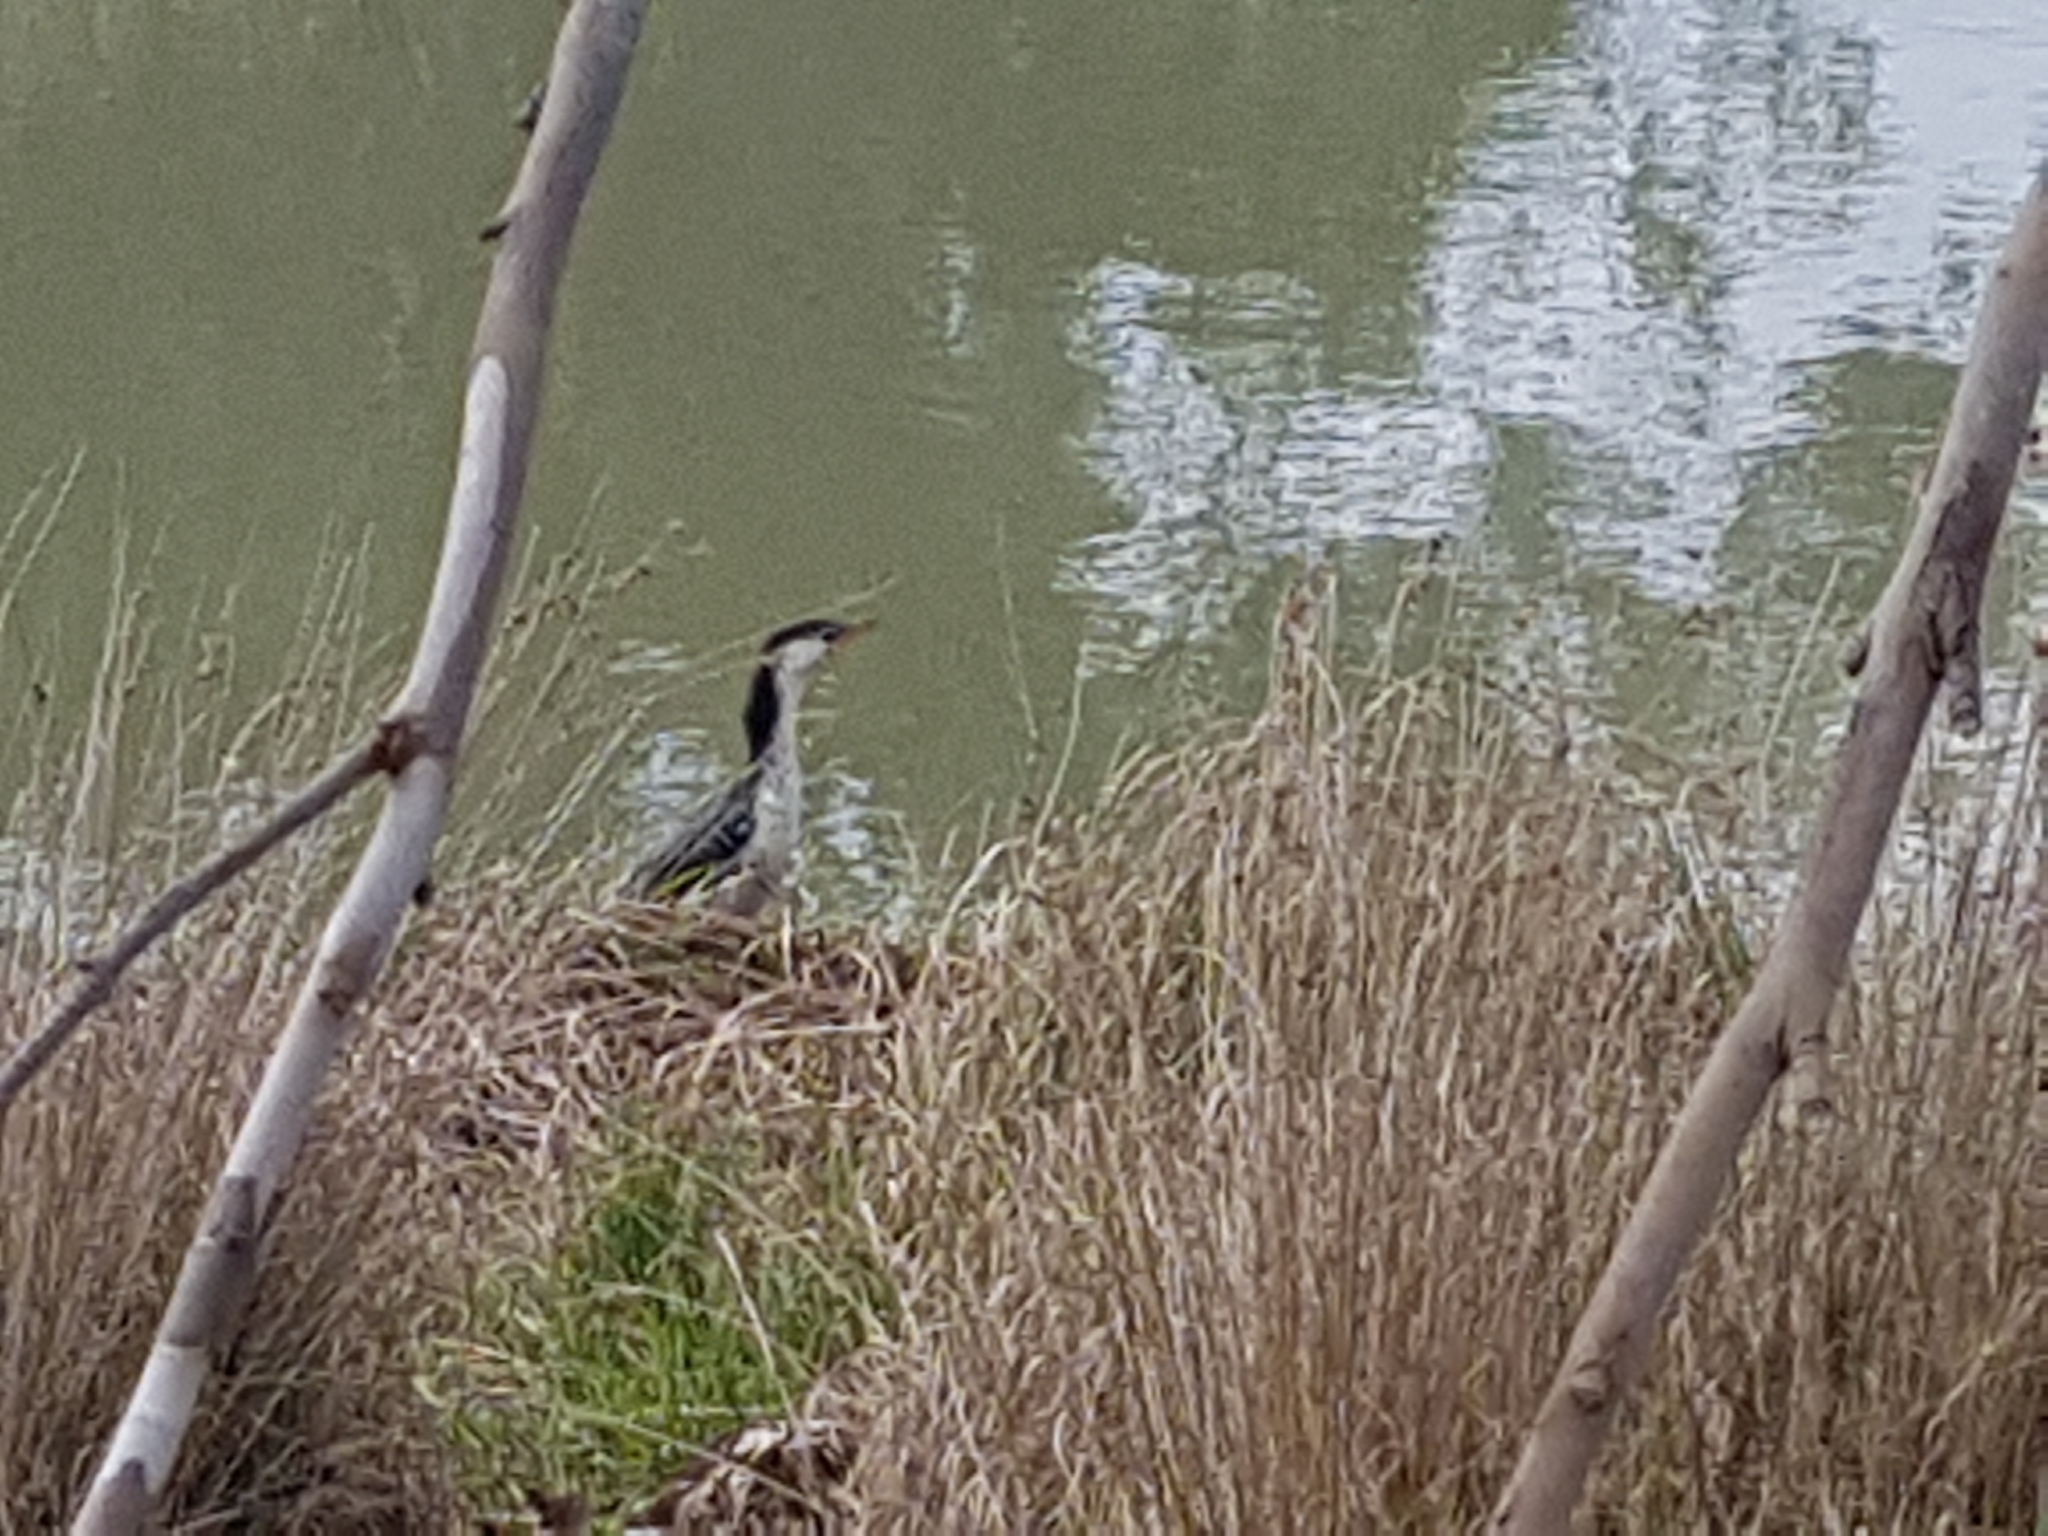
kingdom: Animalia
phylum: Chordata
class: Aves
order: Suliformes
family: Phalacrocoracidae
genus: Microcarbo
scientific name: Microcarbo melanoleucos
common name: Little pied cormorant
